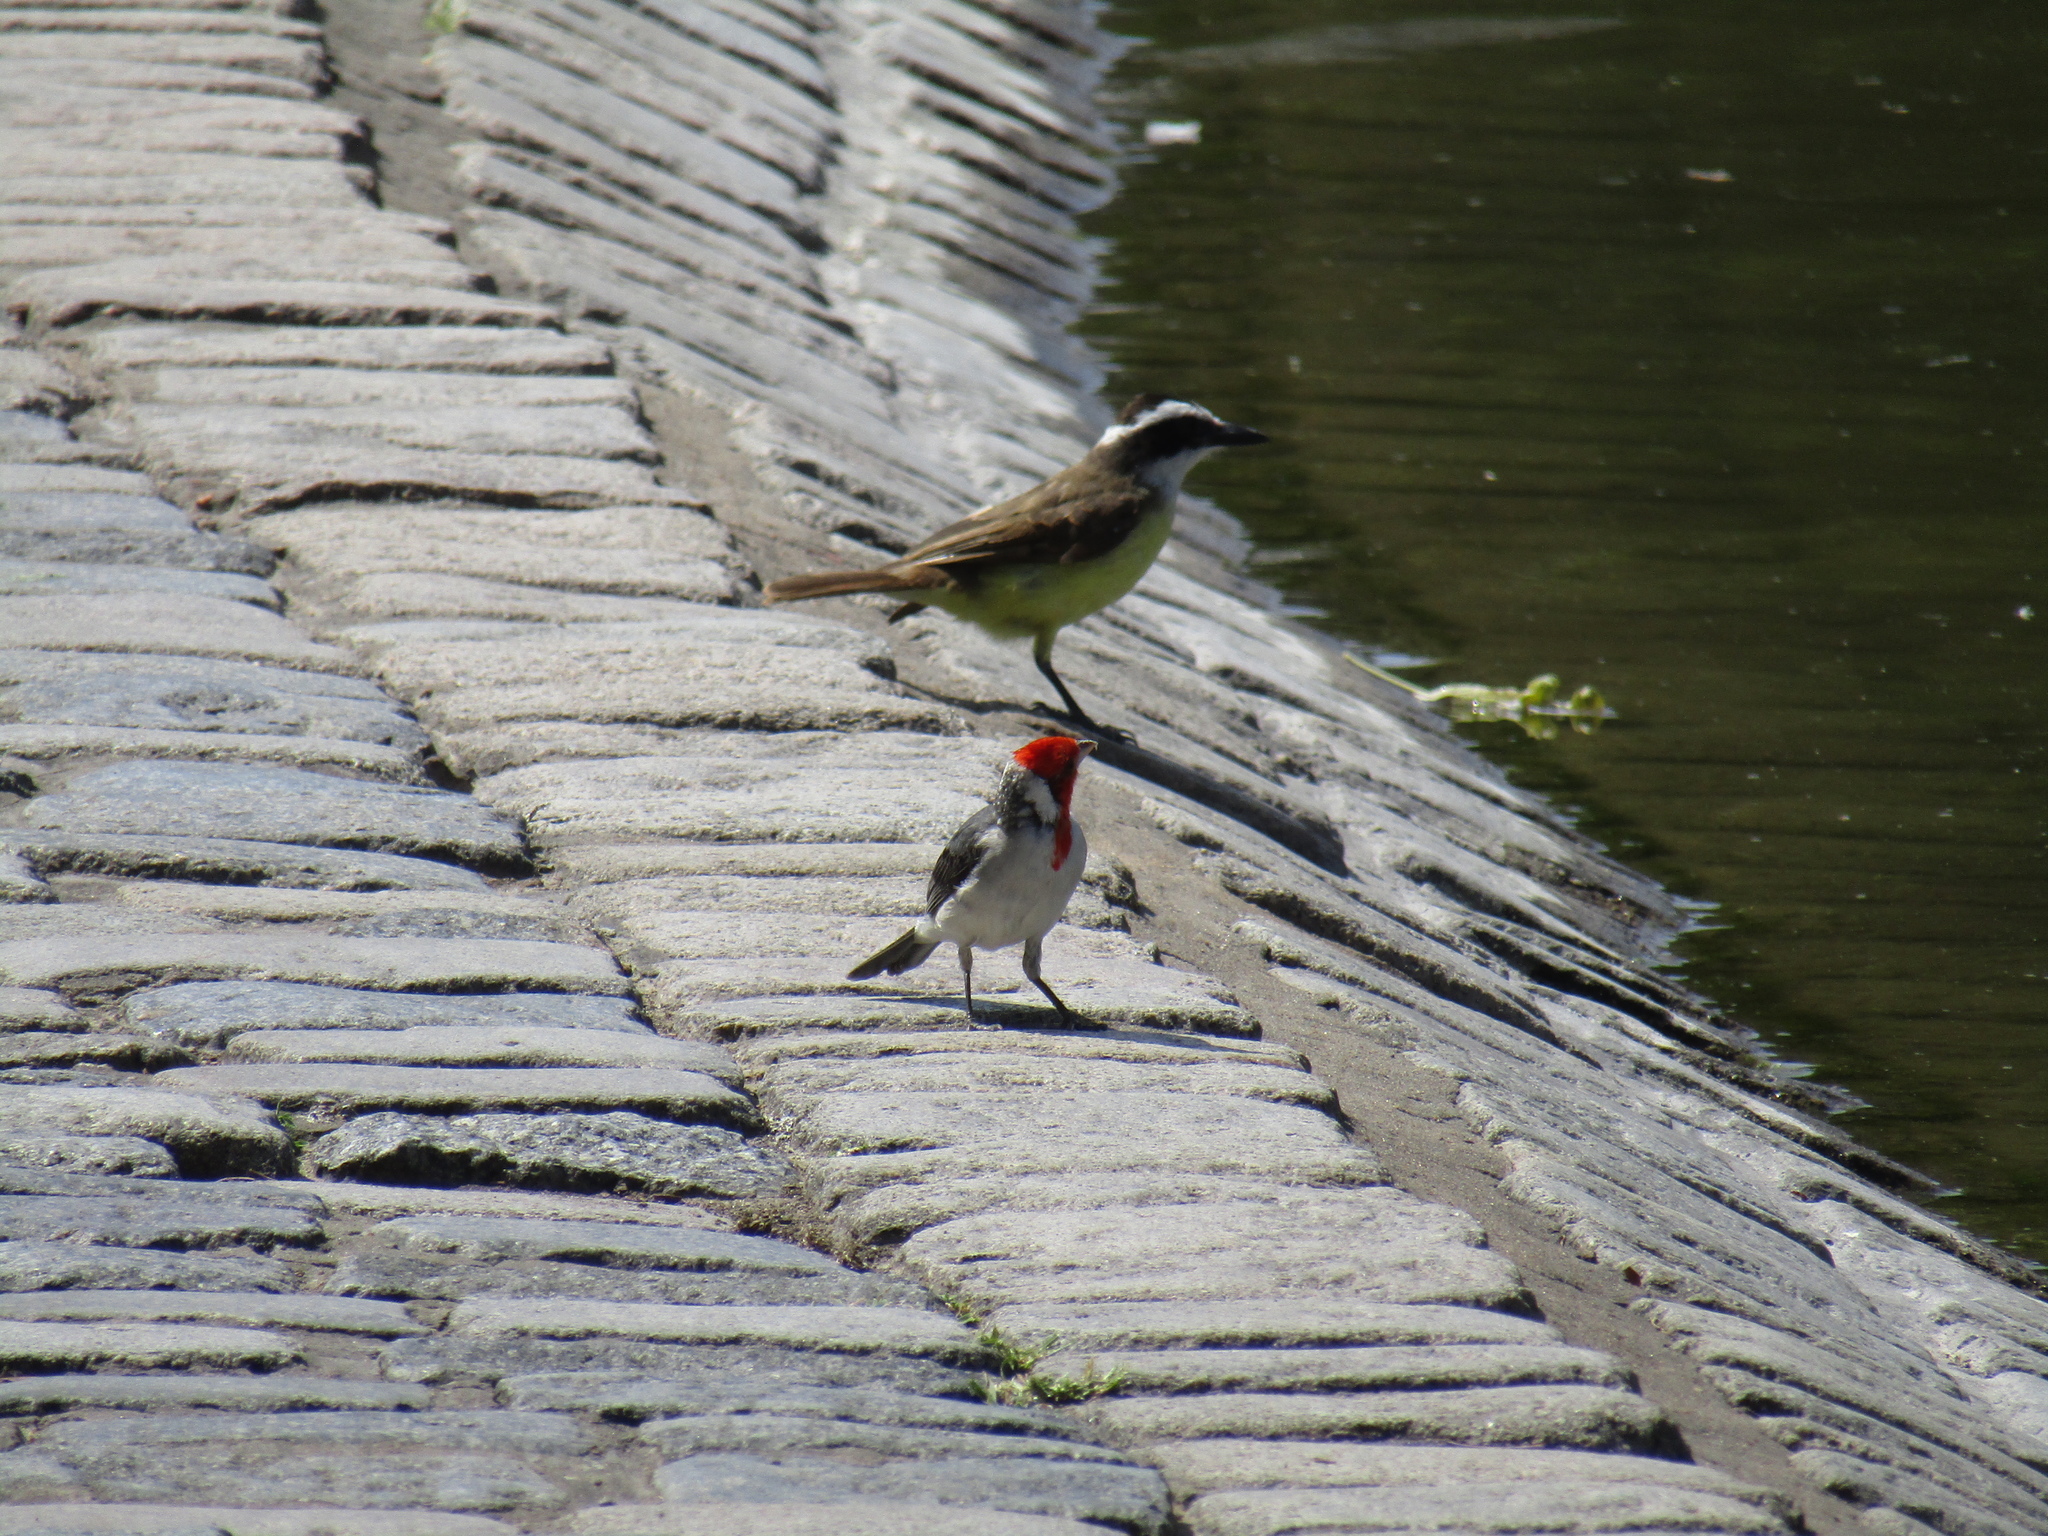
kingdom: Animalia
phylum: Chordata
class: Aves
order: Passeriformes
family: Tyrannidae
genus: Pitangus
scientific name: Pitangus sulphuratus
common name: Great kiskadee
